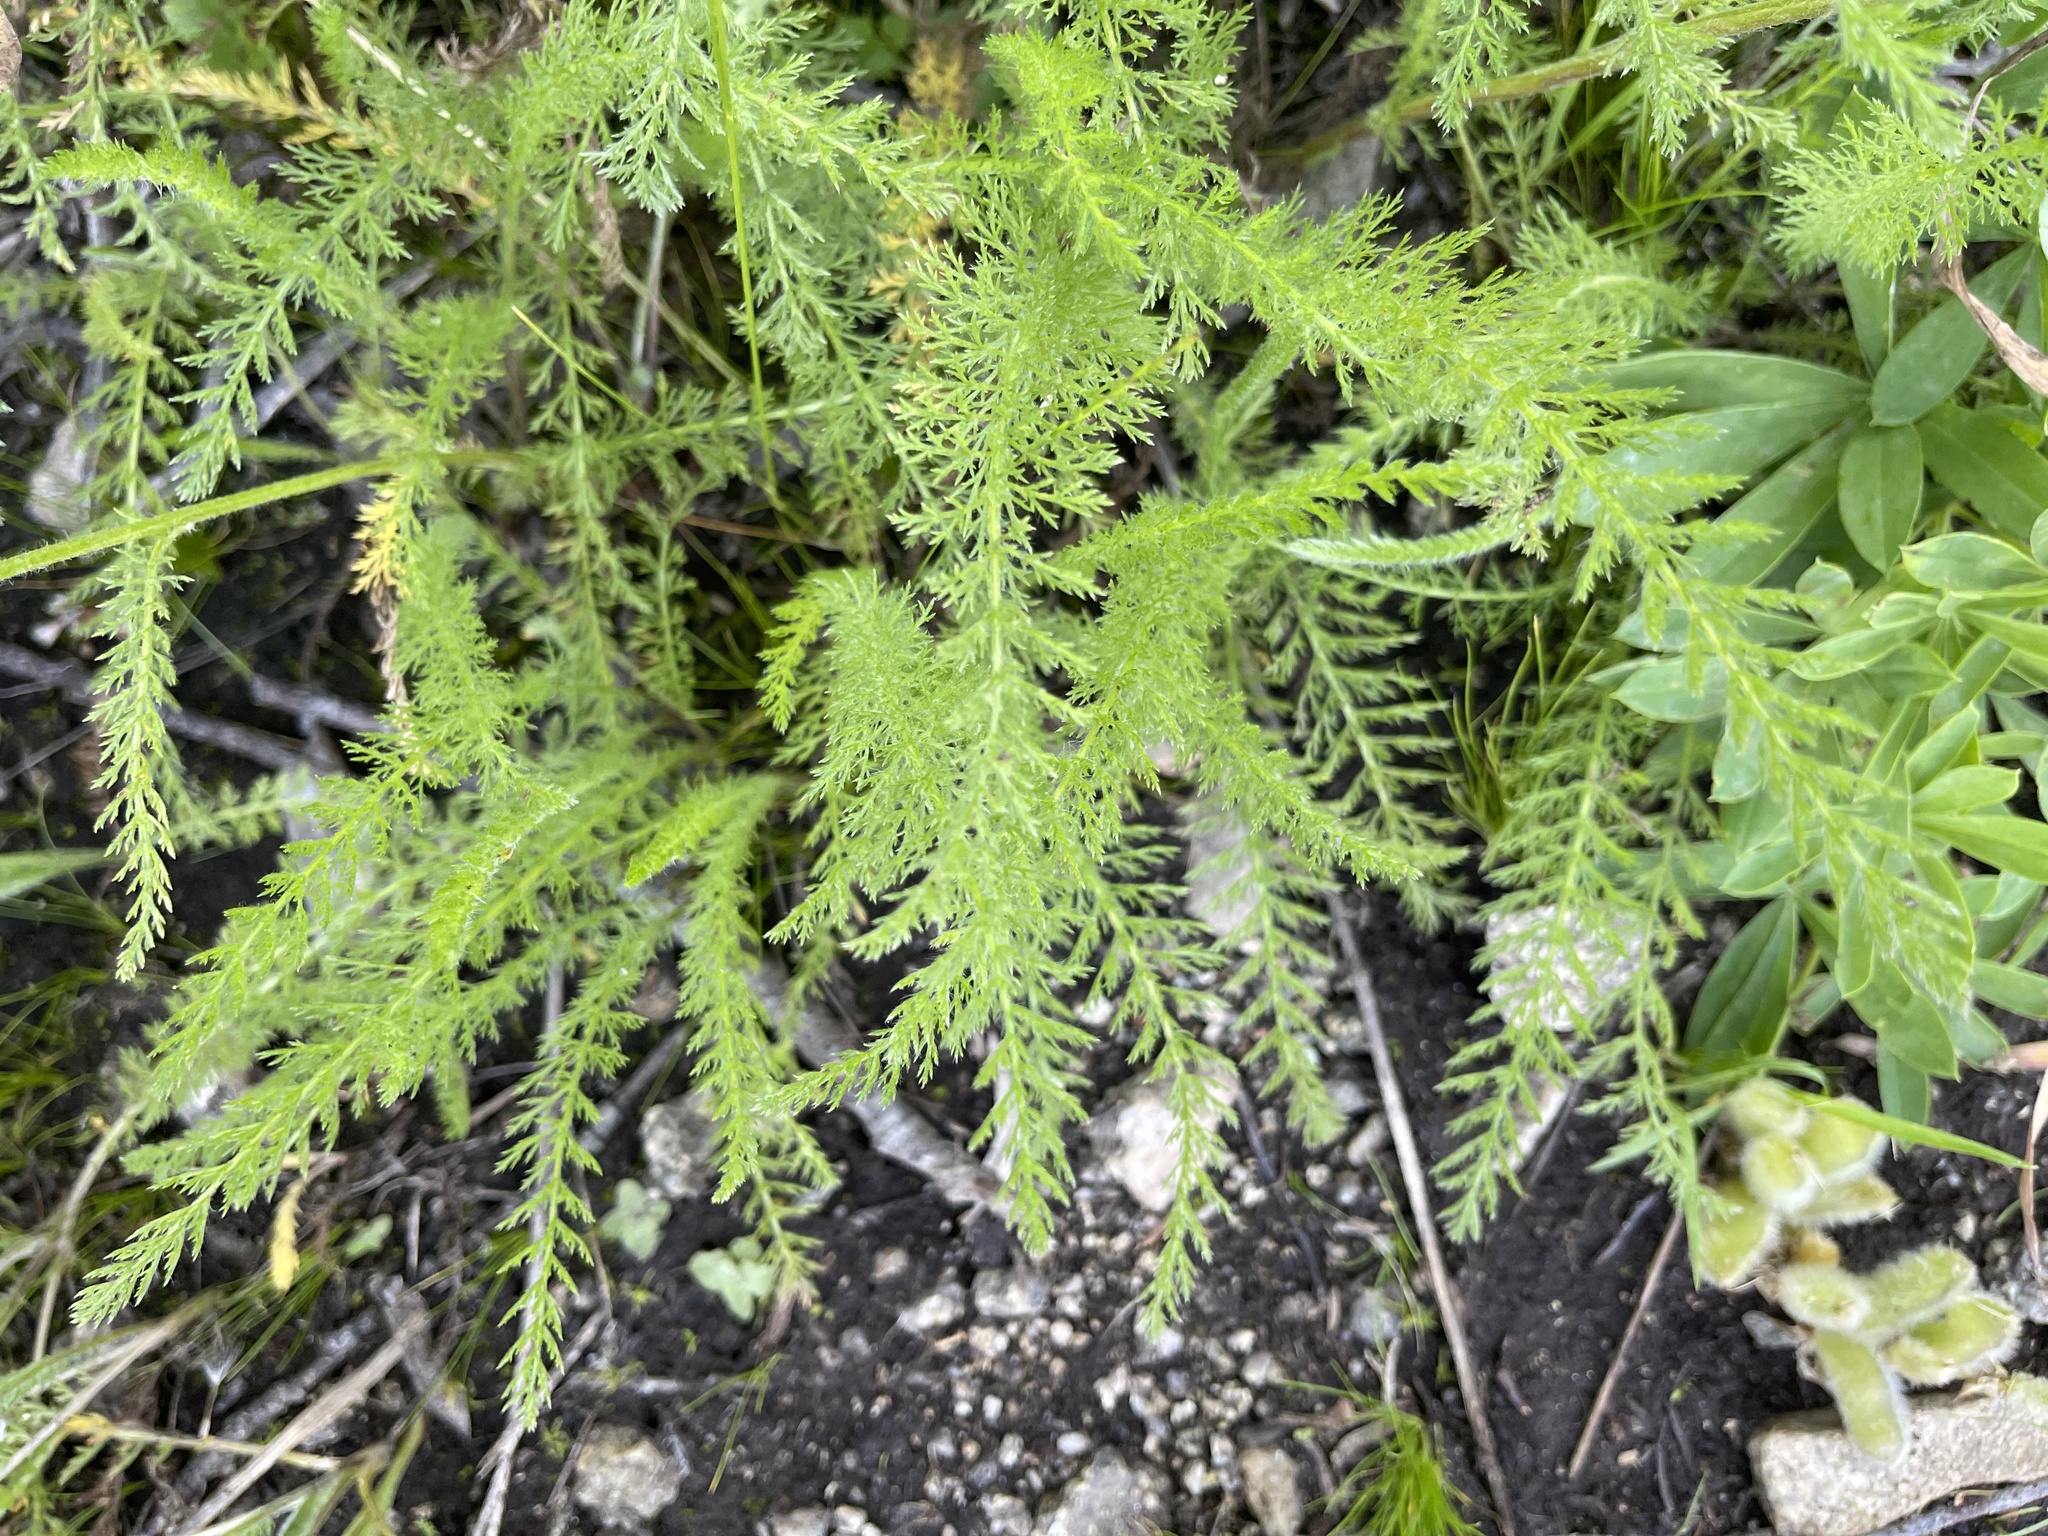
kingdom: Plantae
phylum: Tracheophyta
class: Magnoliopsida
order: Asterales
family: Asteraceae
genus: Achillea
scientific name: Achillea millefolium
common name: Yarrow
